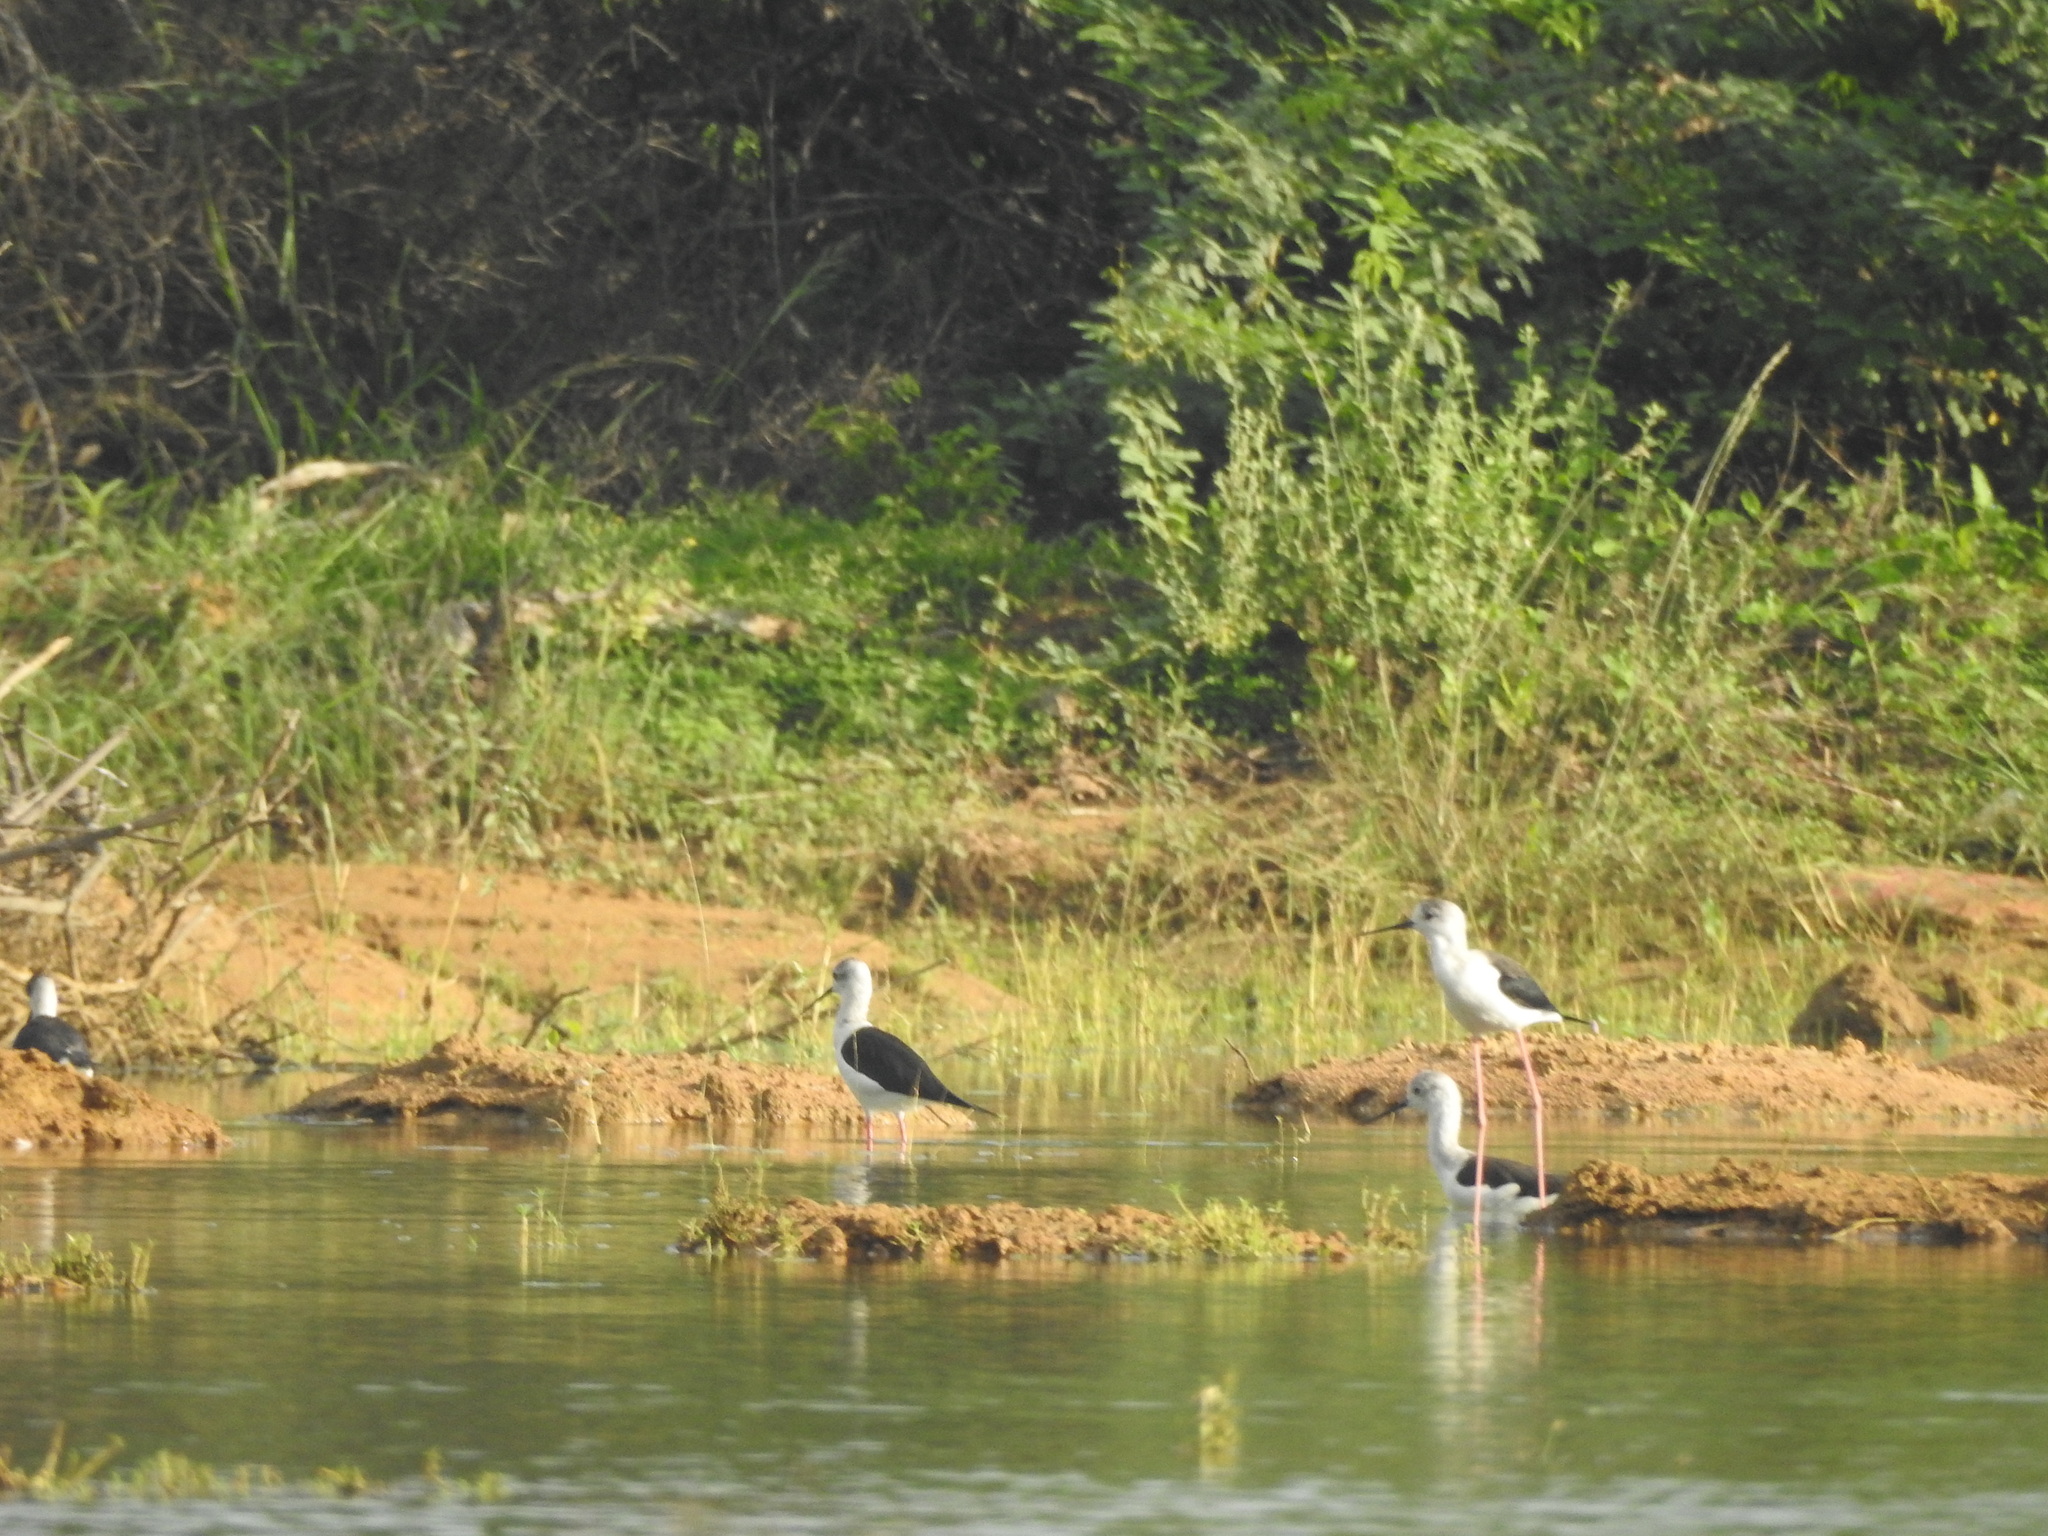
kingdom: Animalia
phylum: Chordata
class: Aves
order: Charadriiformes
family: Recurvirostridae
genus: Himantopus
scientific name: Himantopus himantopus
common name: Black-winged stilt
